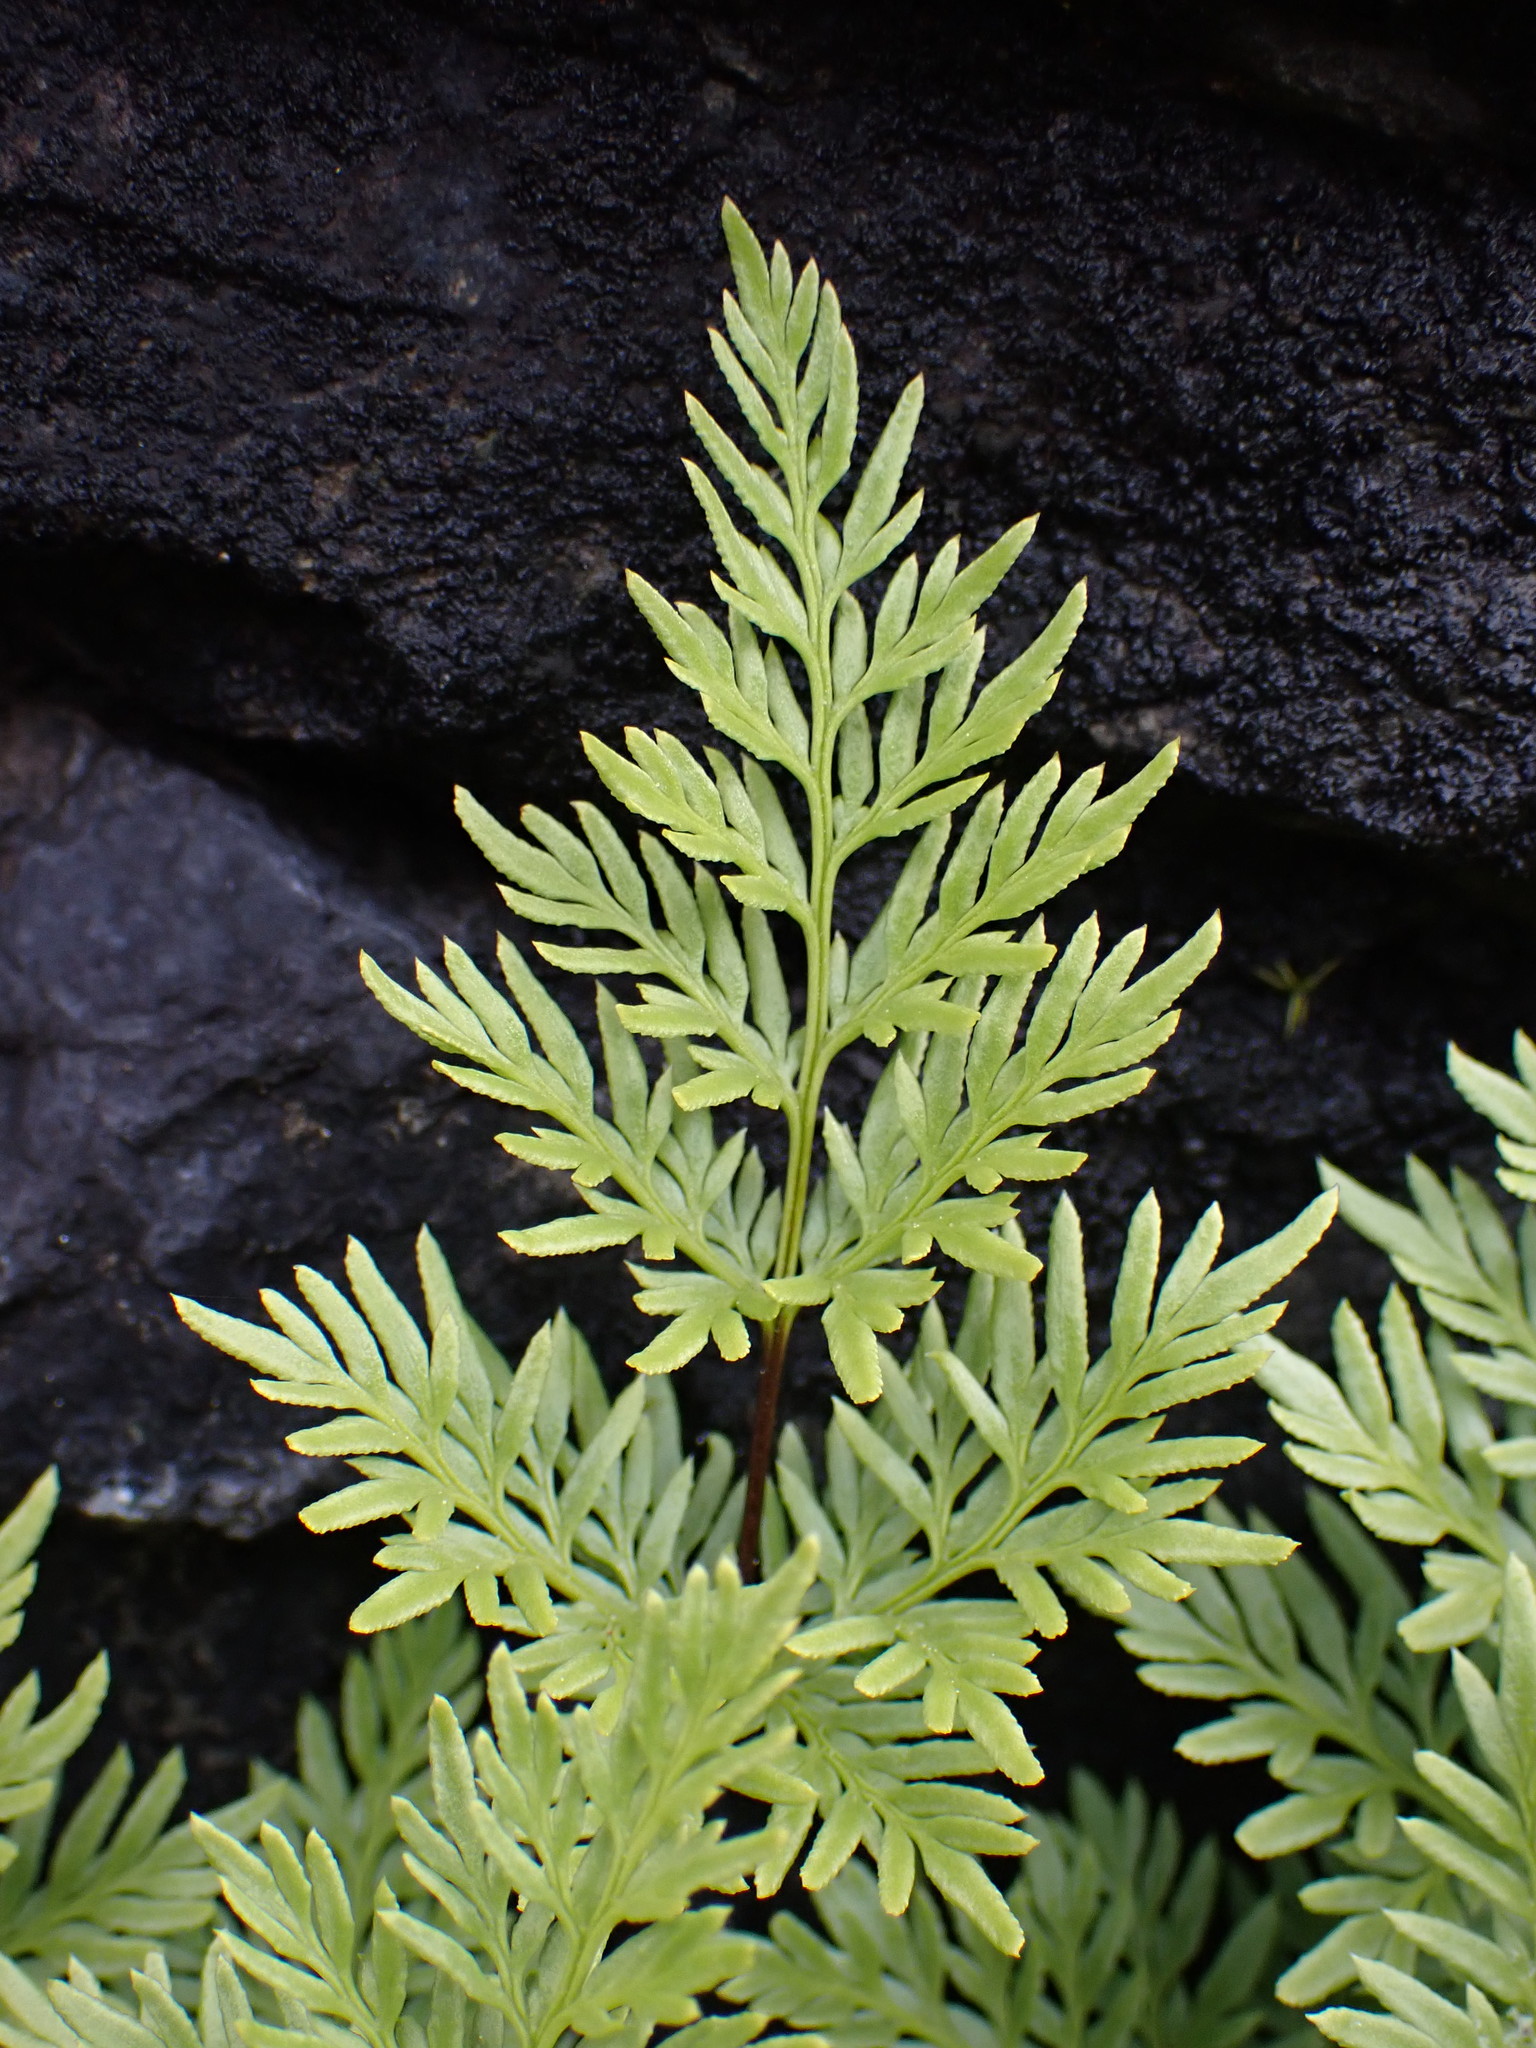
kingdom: Plantae
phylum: Tracheophyta
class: Polypodiopsida
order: Polypodiales
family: Pteridaceae
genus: Aspidotis
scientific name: Aspidotis densa
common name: Indian's dream
